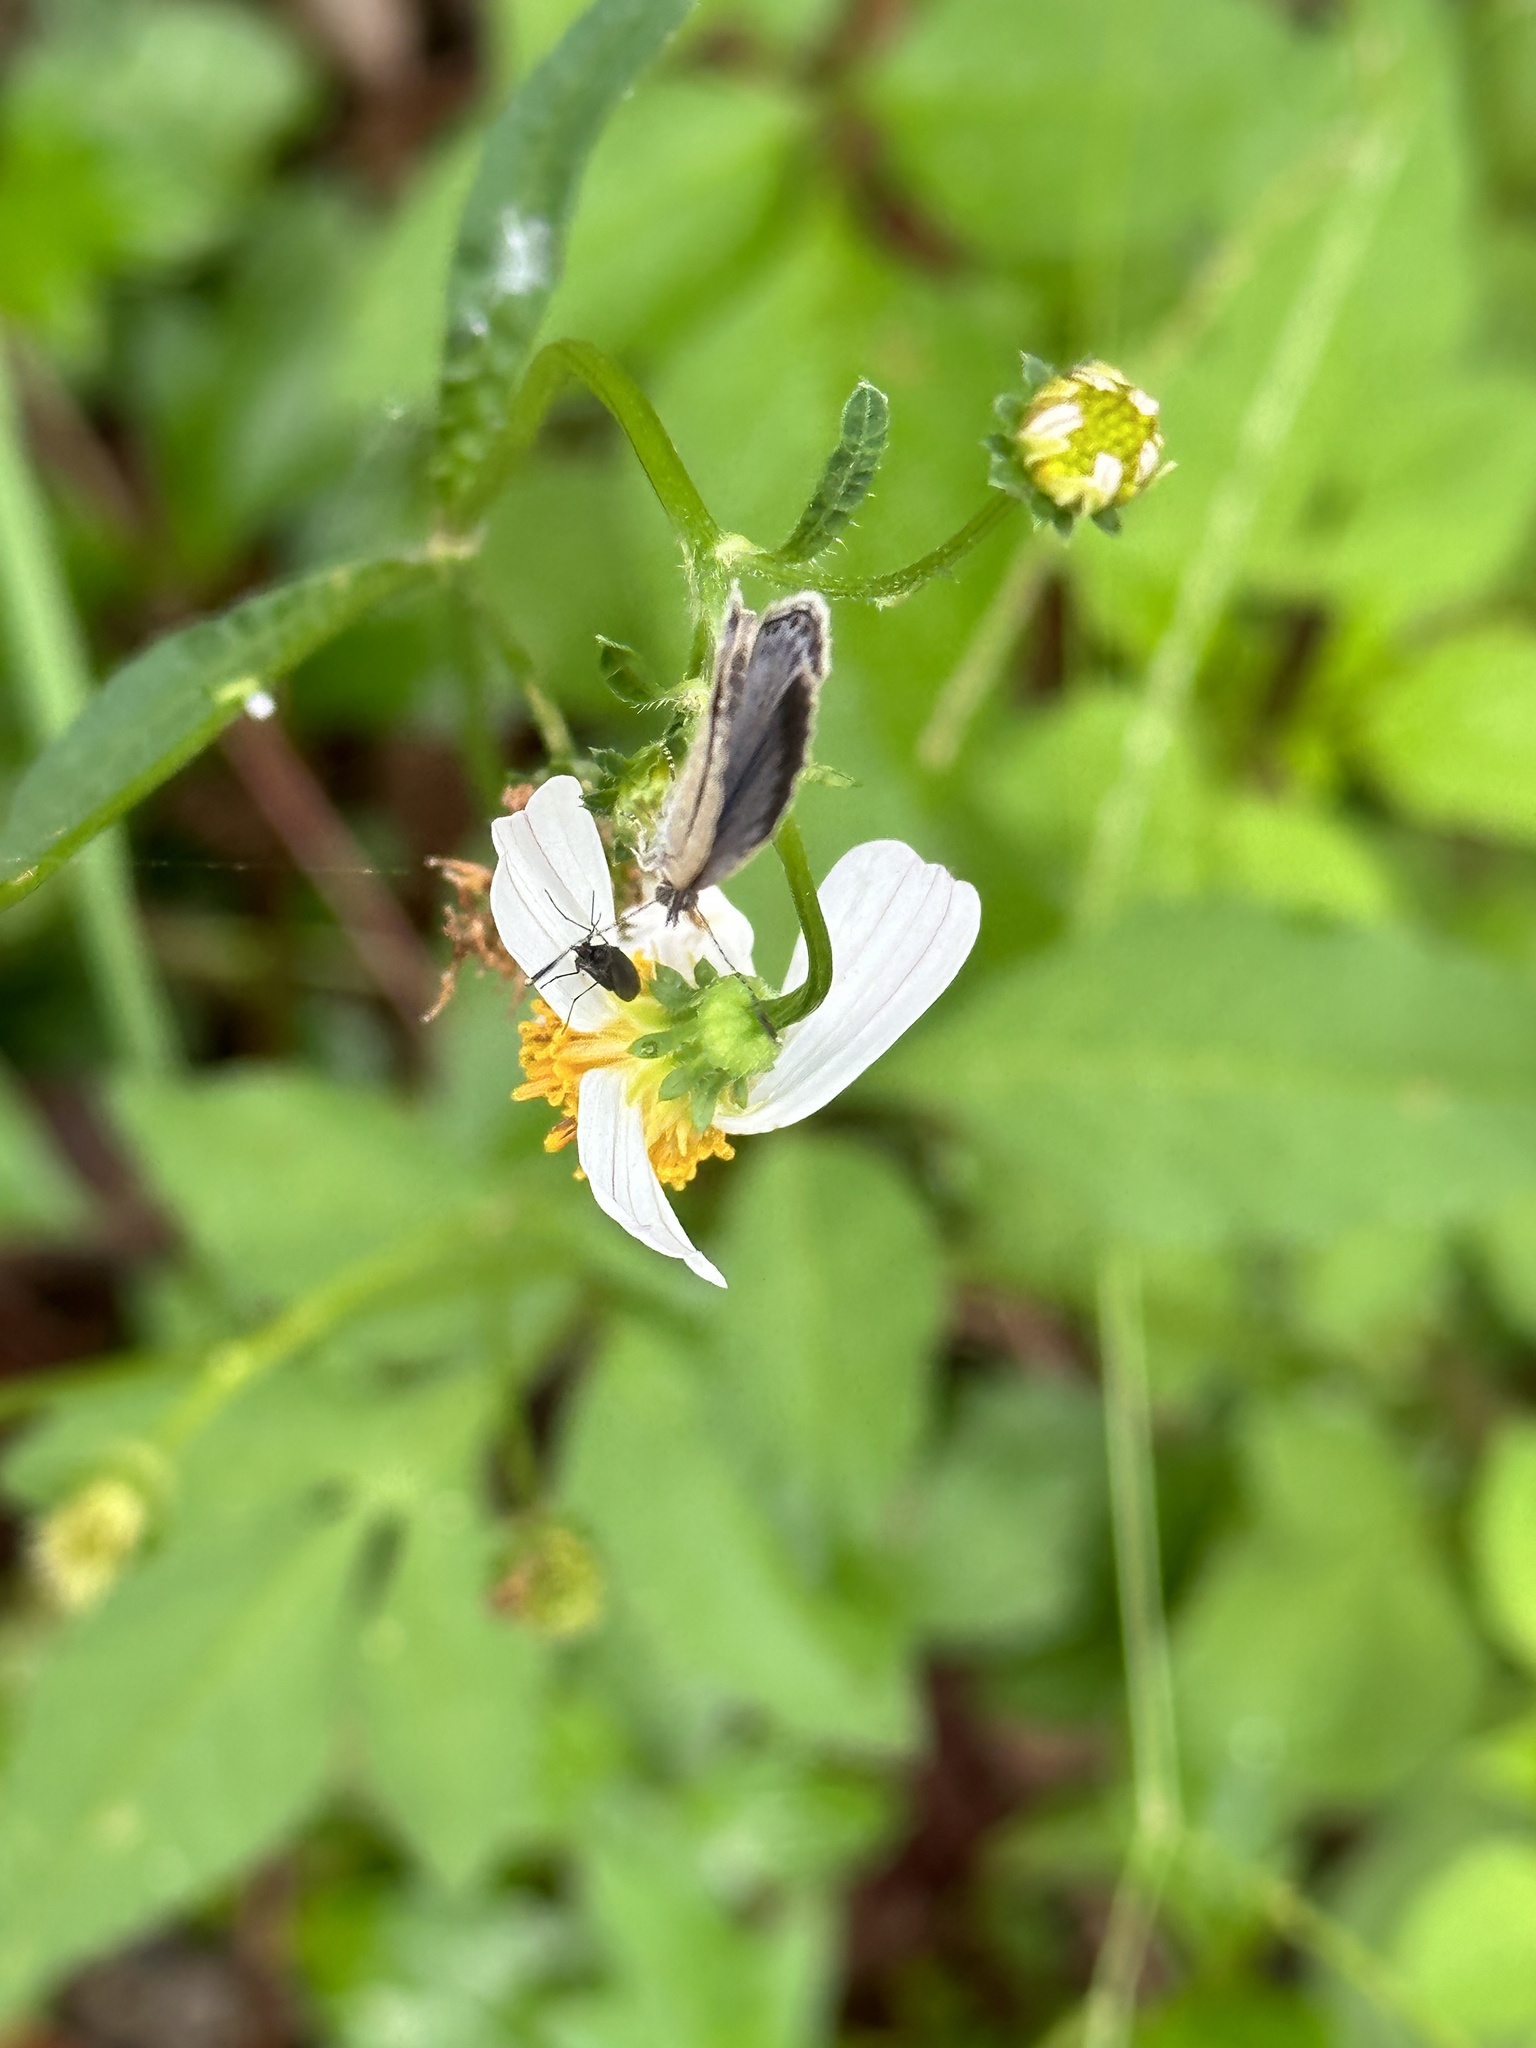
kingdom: Animalia
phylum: Arthropoda
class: Insecta
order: Lepidoptera
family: Lycaenidae
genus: Pseudozizeeria
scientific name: Pseudozizeeria maha
